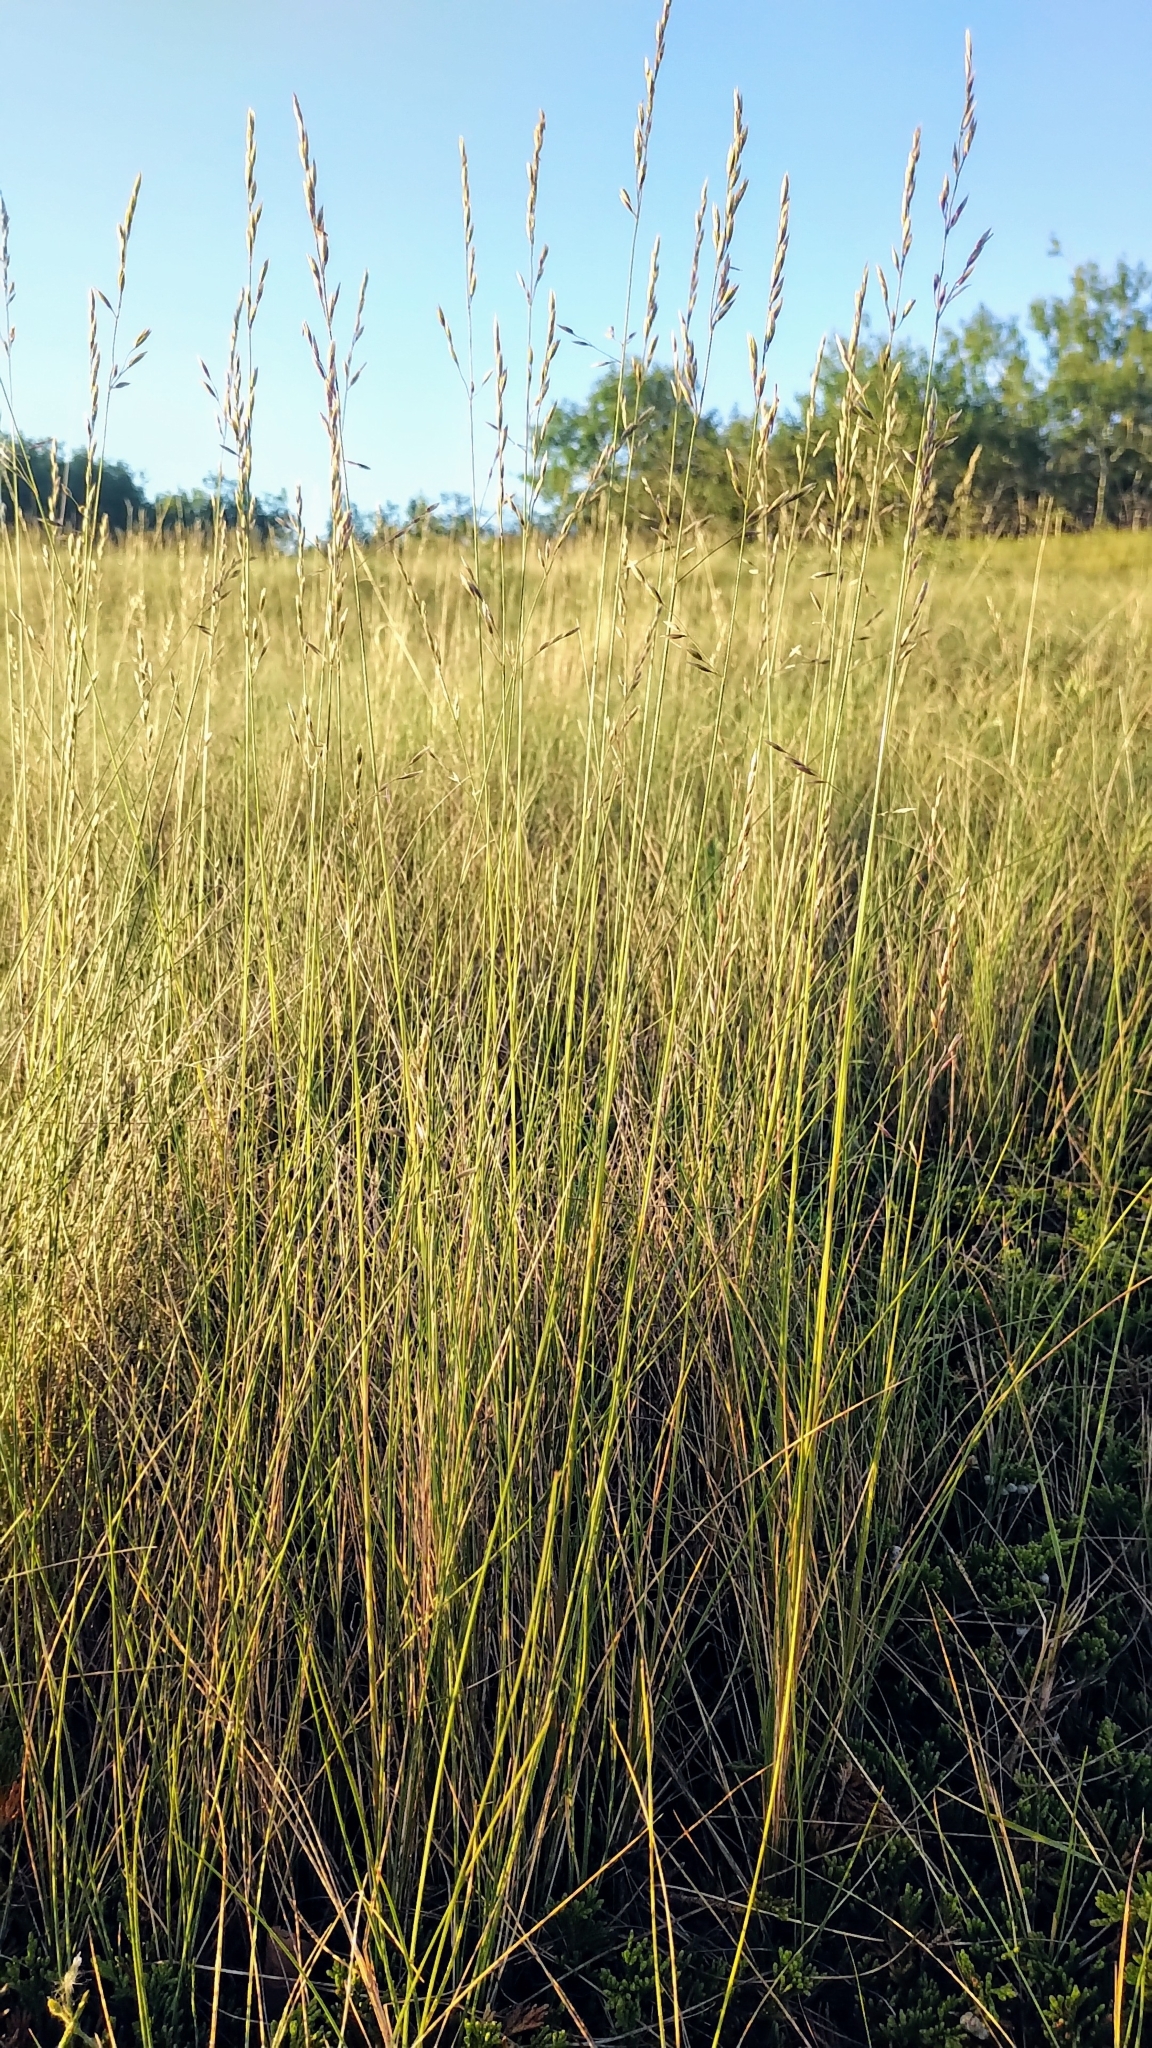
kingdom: Plantae
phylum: Tracheophyta
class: Liliopsida
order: Poales
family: Poaceae
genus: Festuca
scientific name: Festuca hallii
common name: Hall's fescue
